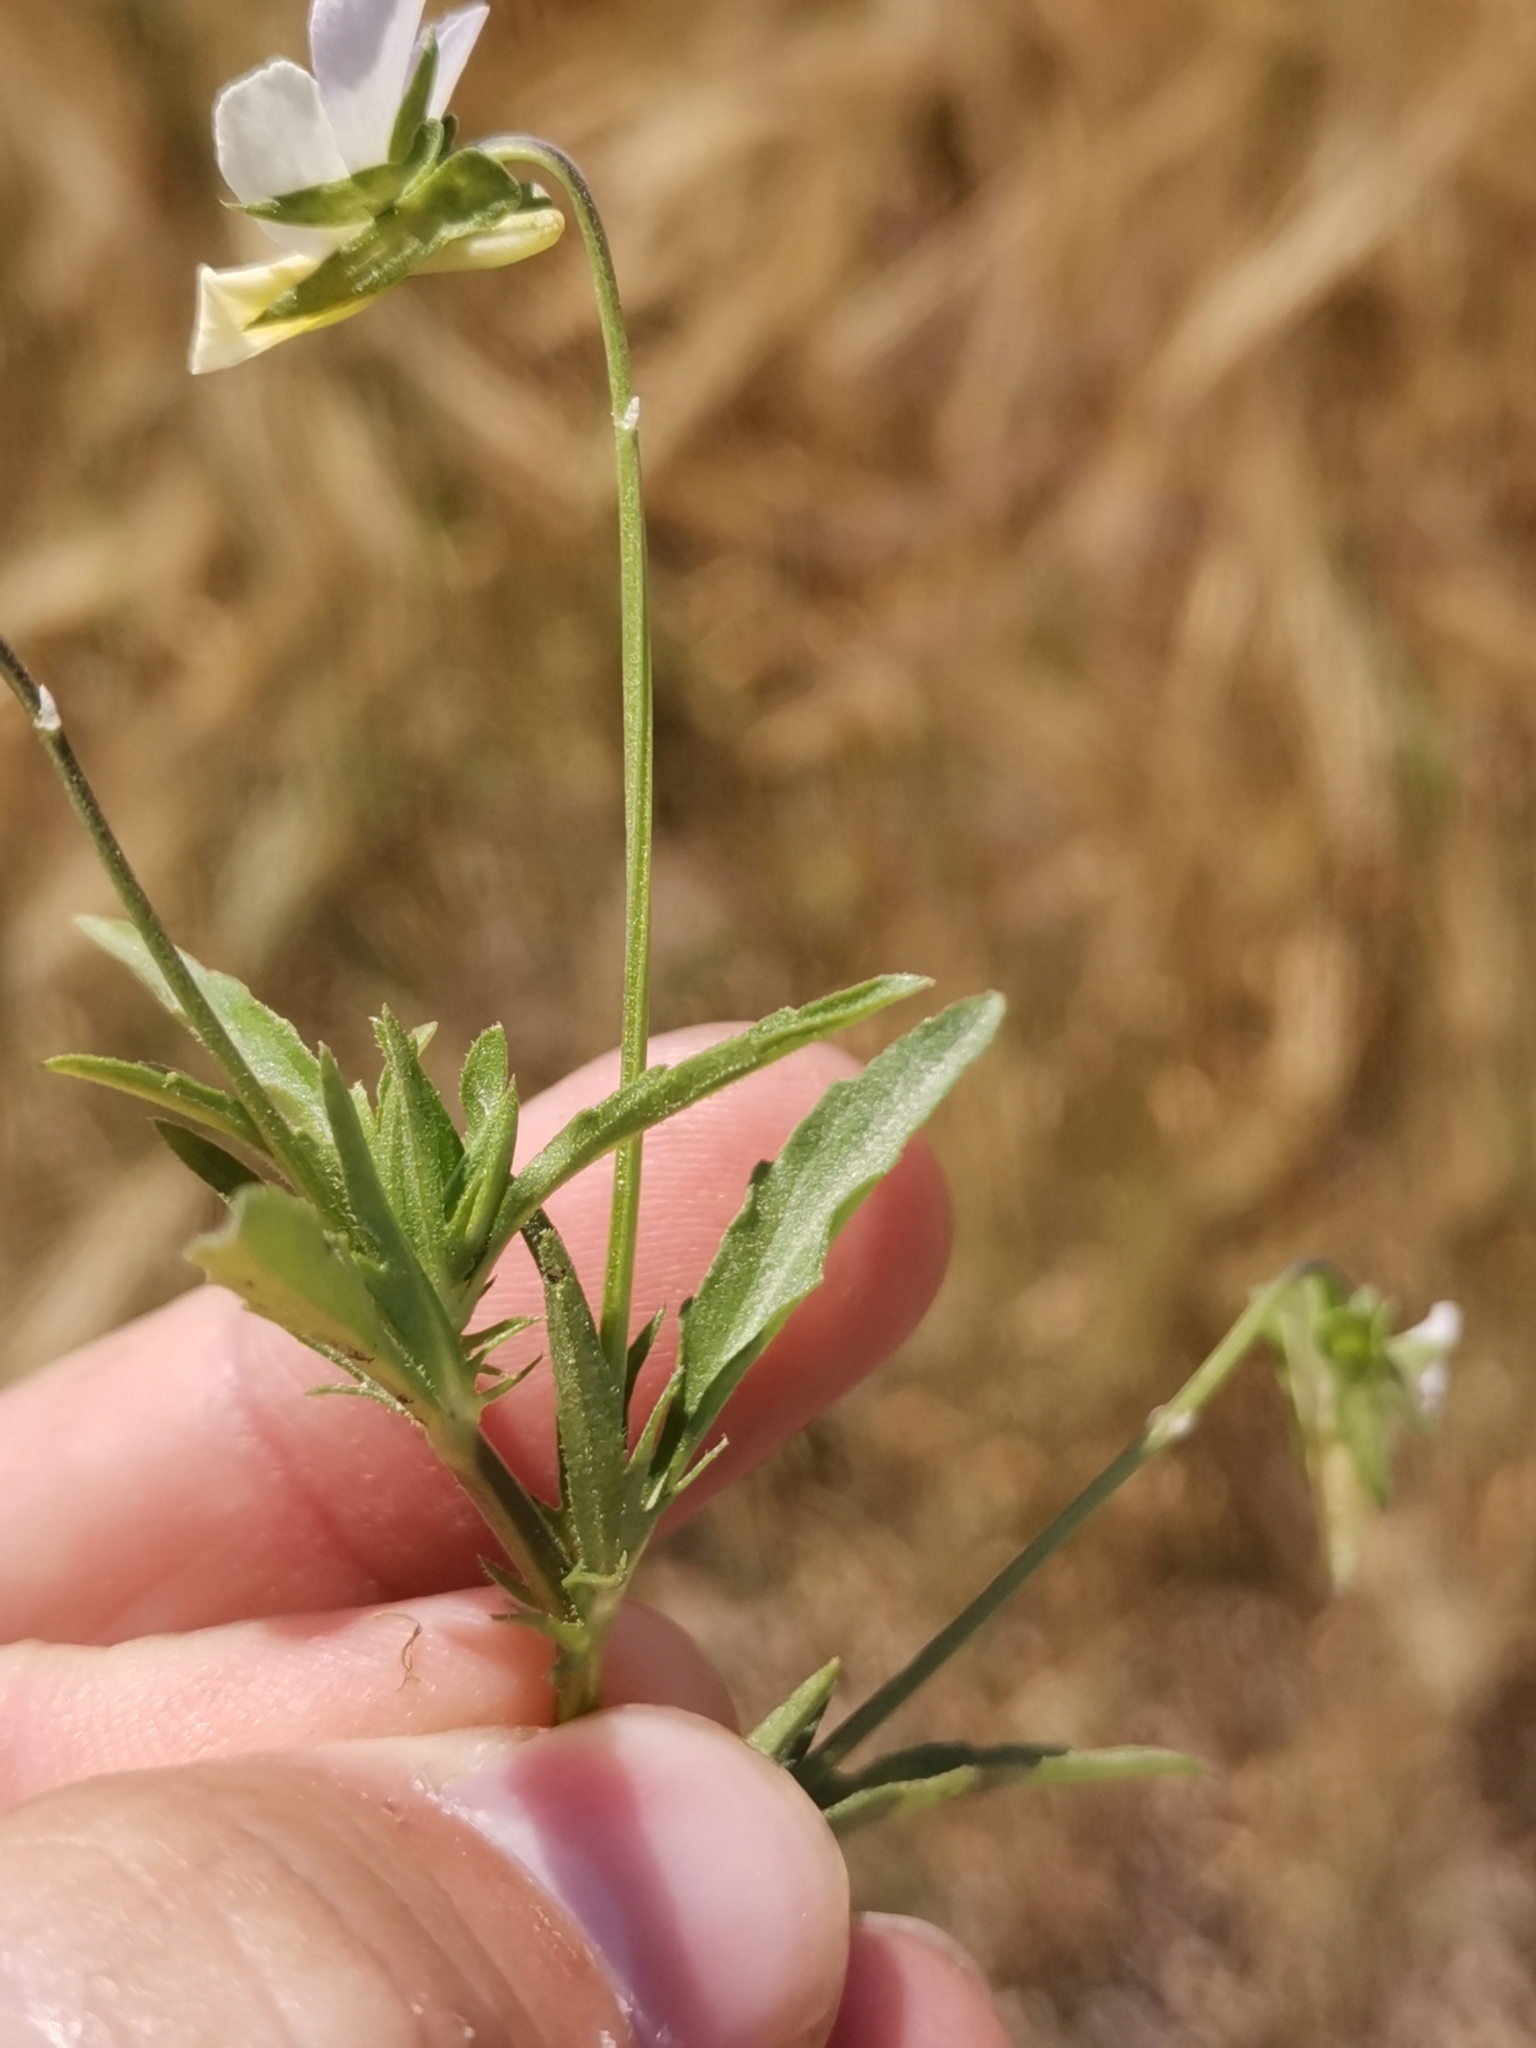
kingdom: Plantae
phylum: Tracheophyta
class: Magnoliopsida
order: Malpighiales
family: Violaceae
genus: Viola
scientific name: Viola tricolor
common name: Pansy
